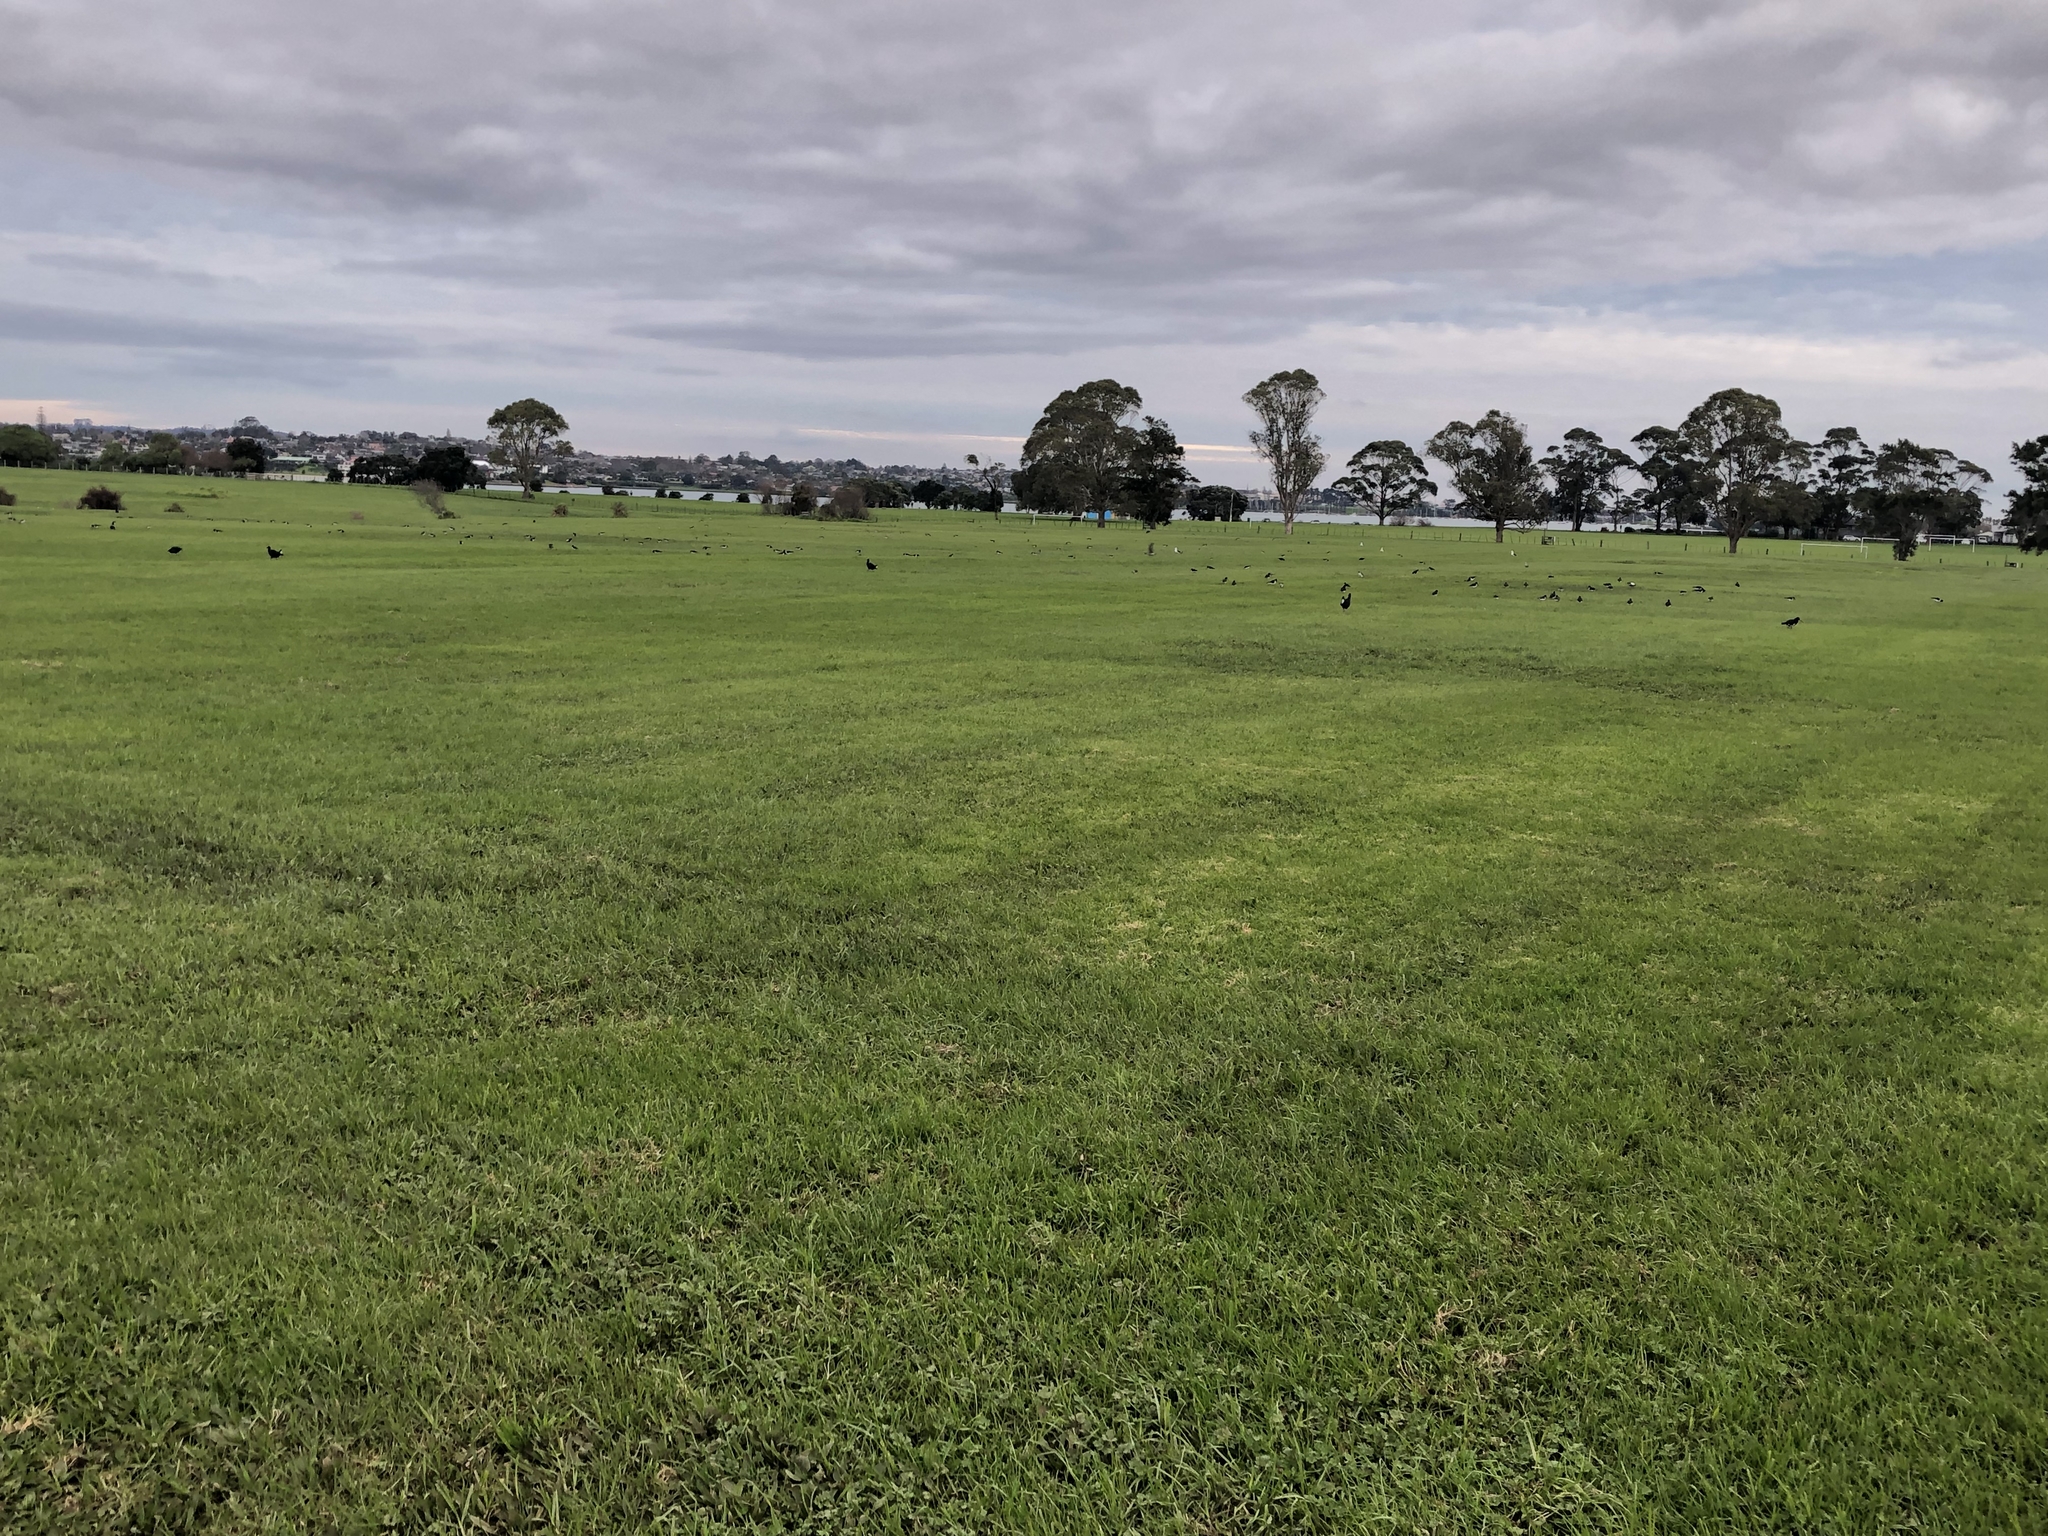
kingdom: Animalia
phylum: Chordata
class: Aves
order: Charadriiformes
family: Haematopodidae
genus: Haematopus
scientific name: Haematopus finschi
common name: South island oystercatcher
